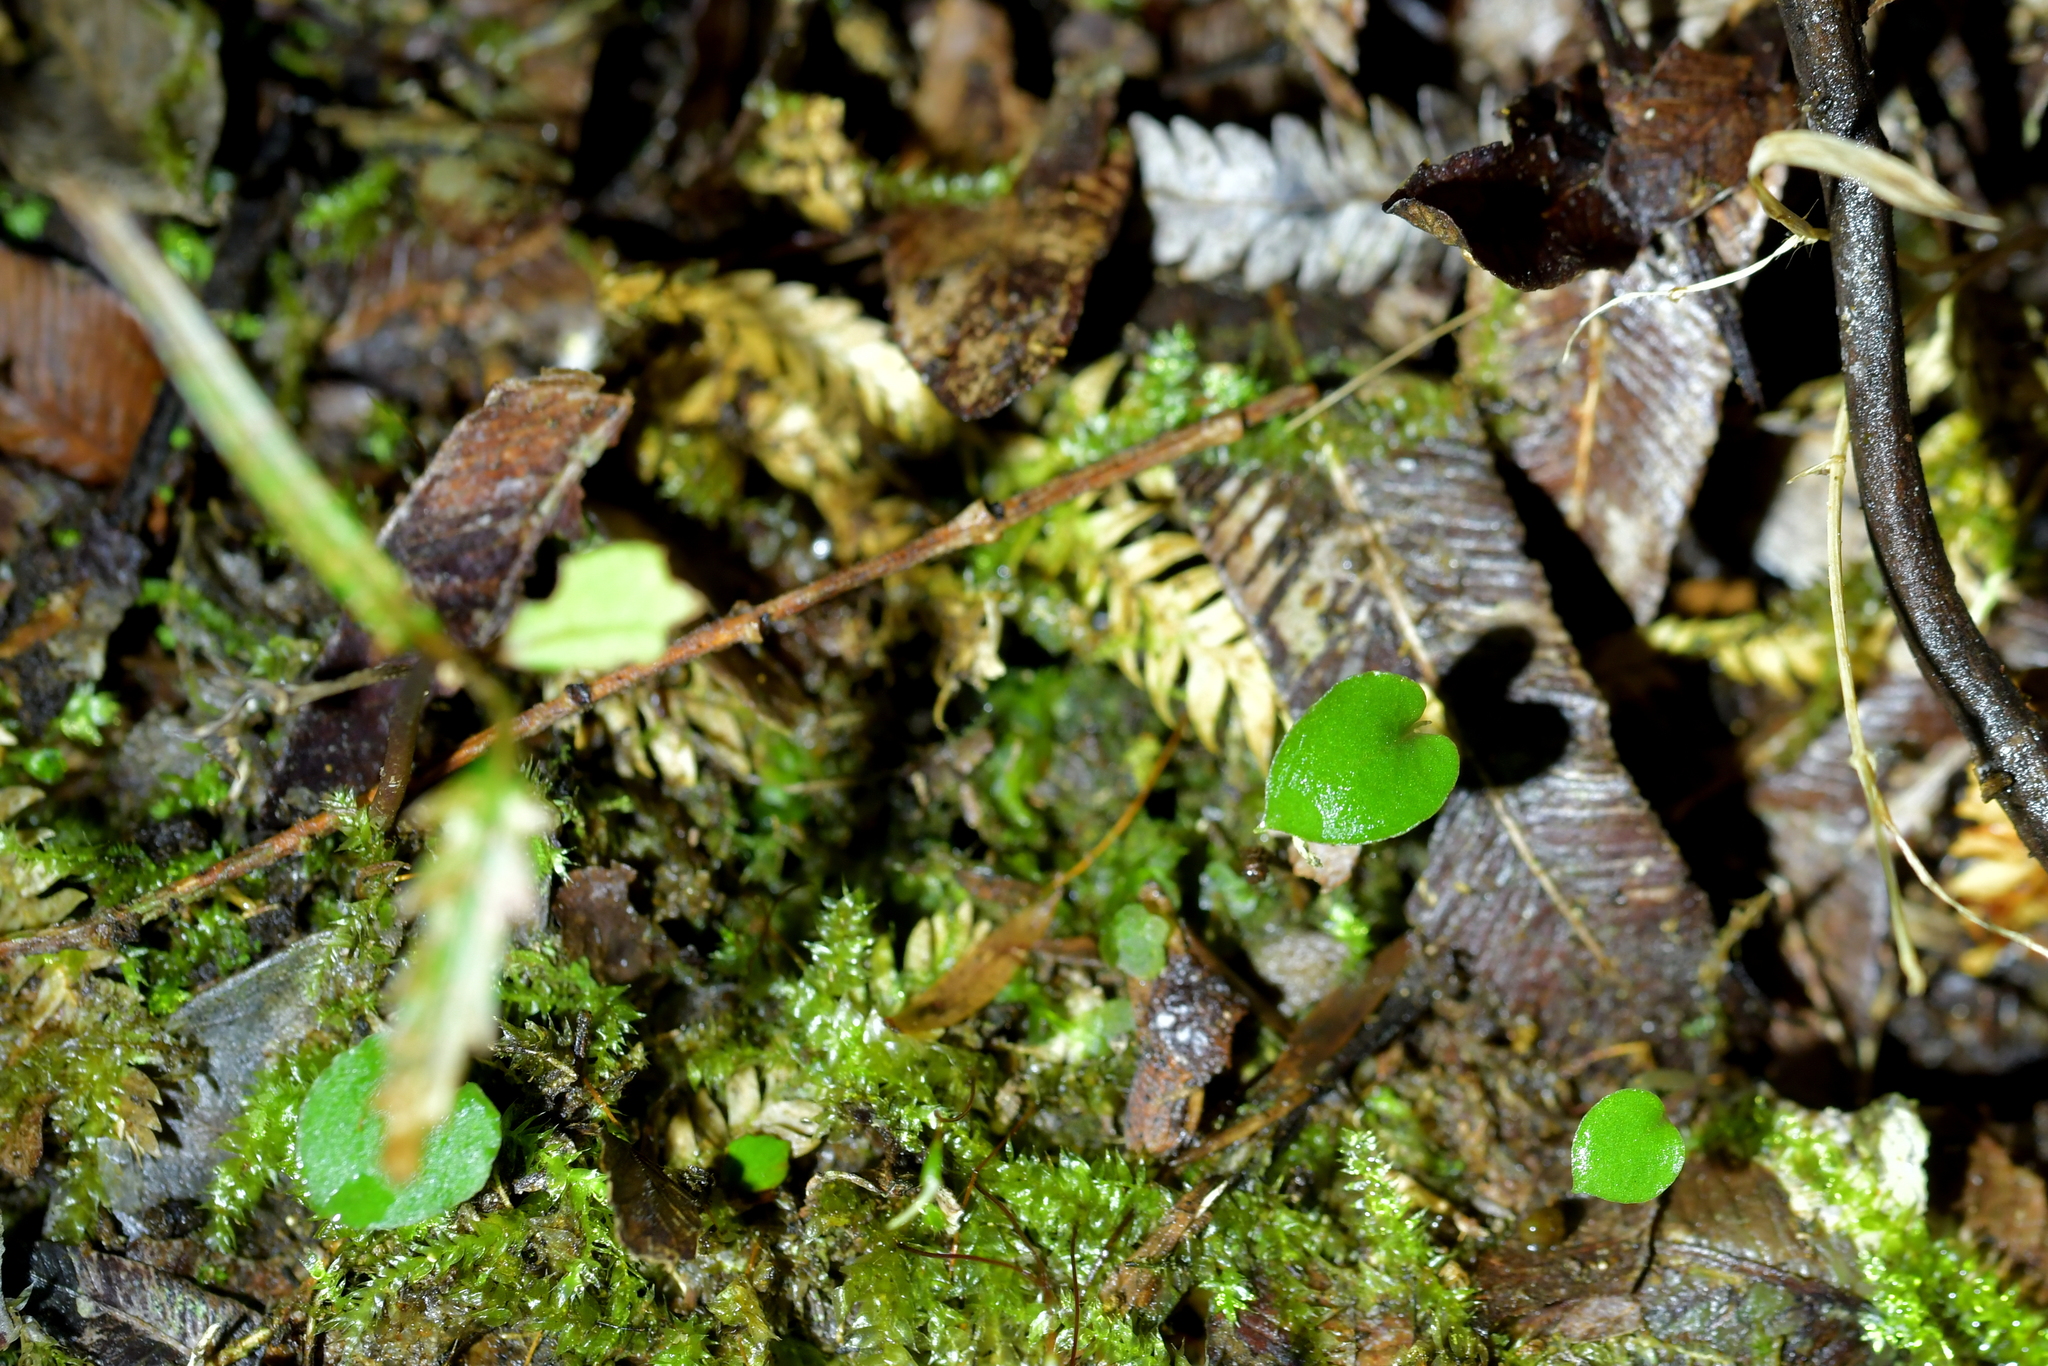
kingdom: Plantae
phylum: Tracheophyta
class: Liliopsida
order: Asparagales
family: Orchidaceae
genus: Corybas
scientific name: Corybas oblongus
